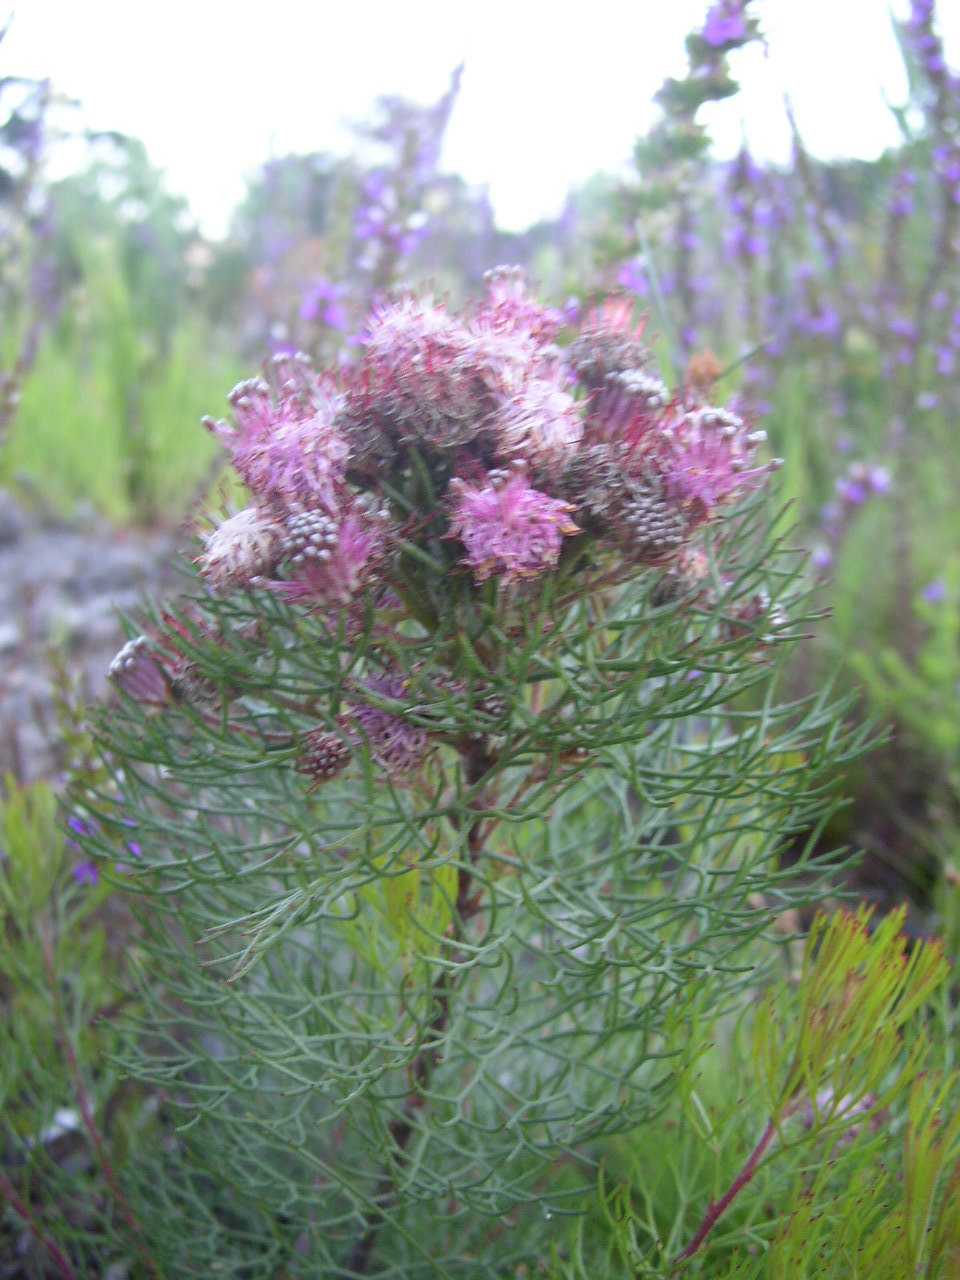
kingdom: Plantae
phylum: Tracheophyta
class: Magnoliopsida
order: Proteales
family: Proteaceae
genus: Serruria
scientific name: Serruria fasciflora
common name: Common pin spiderhead
